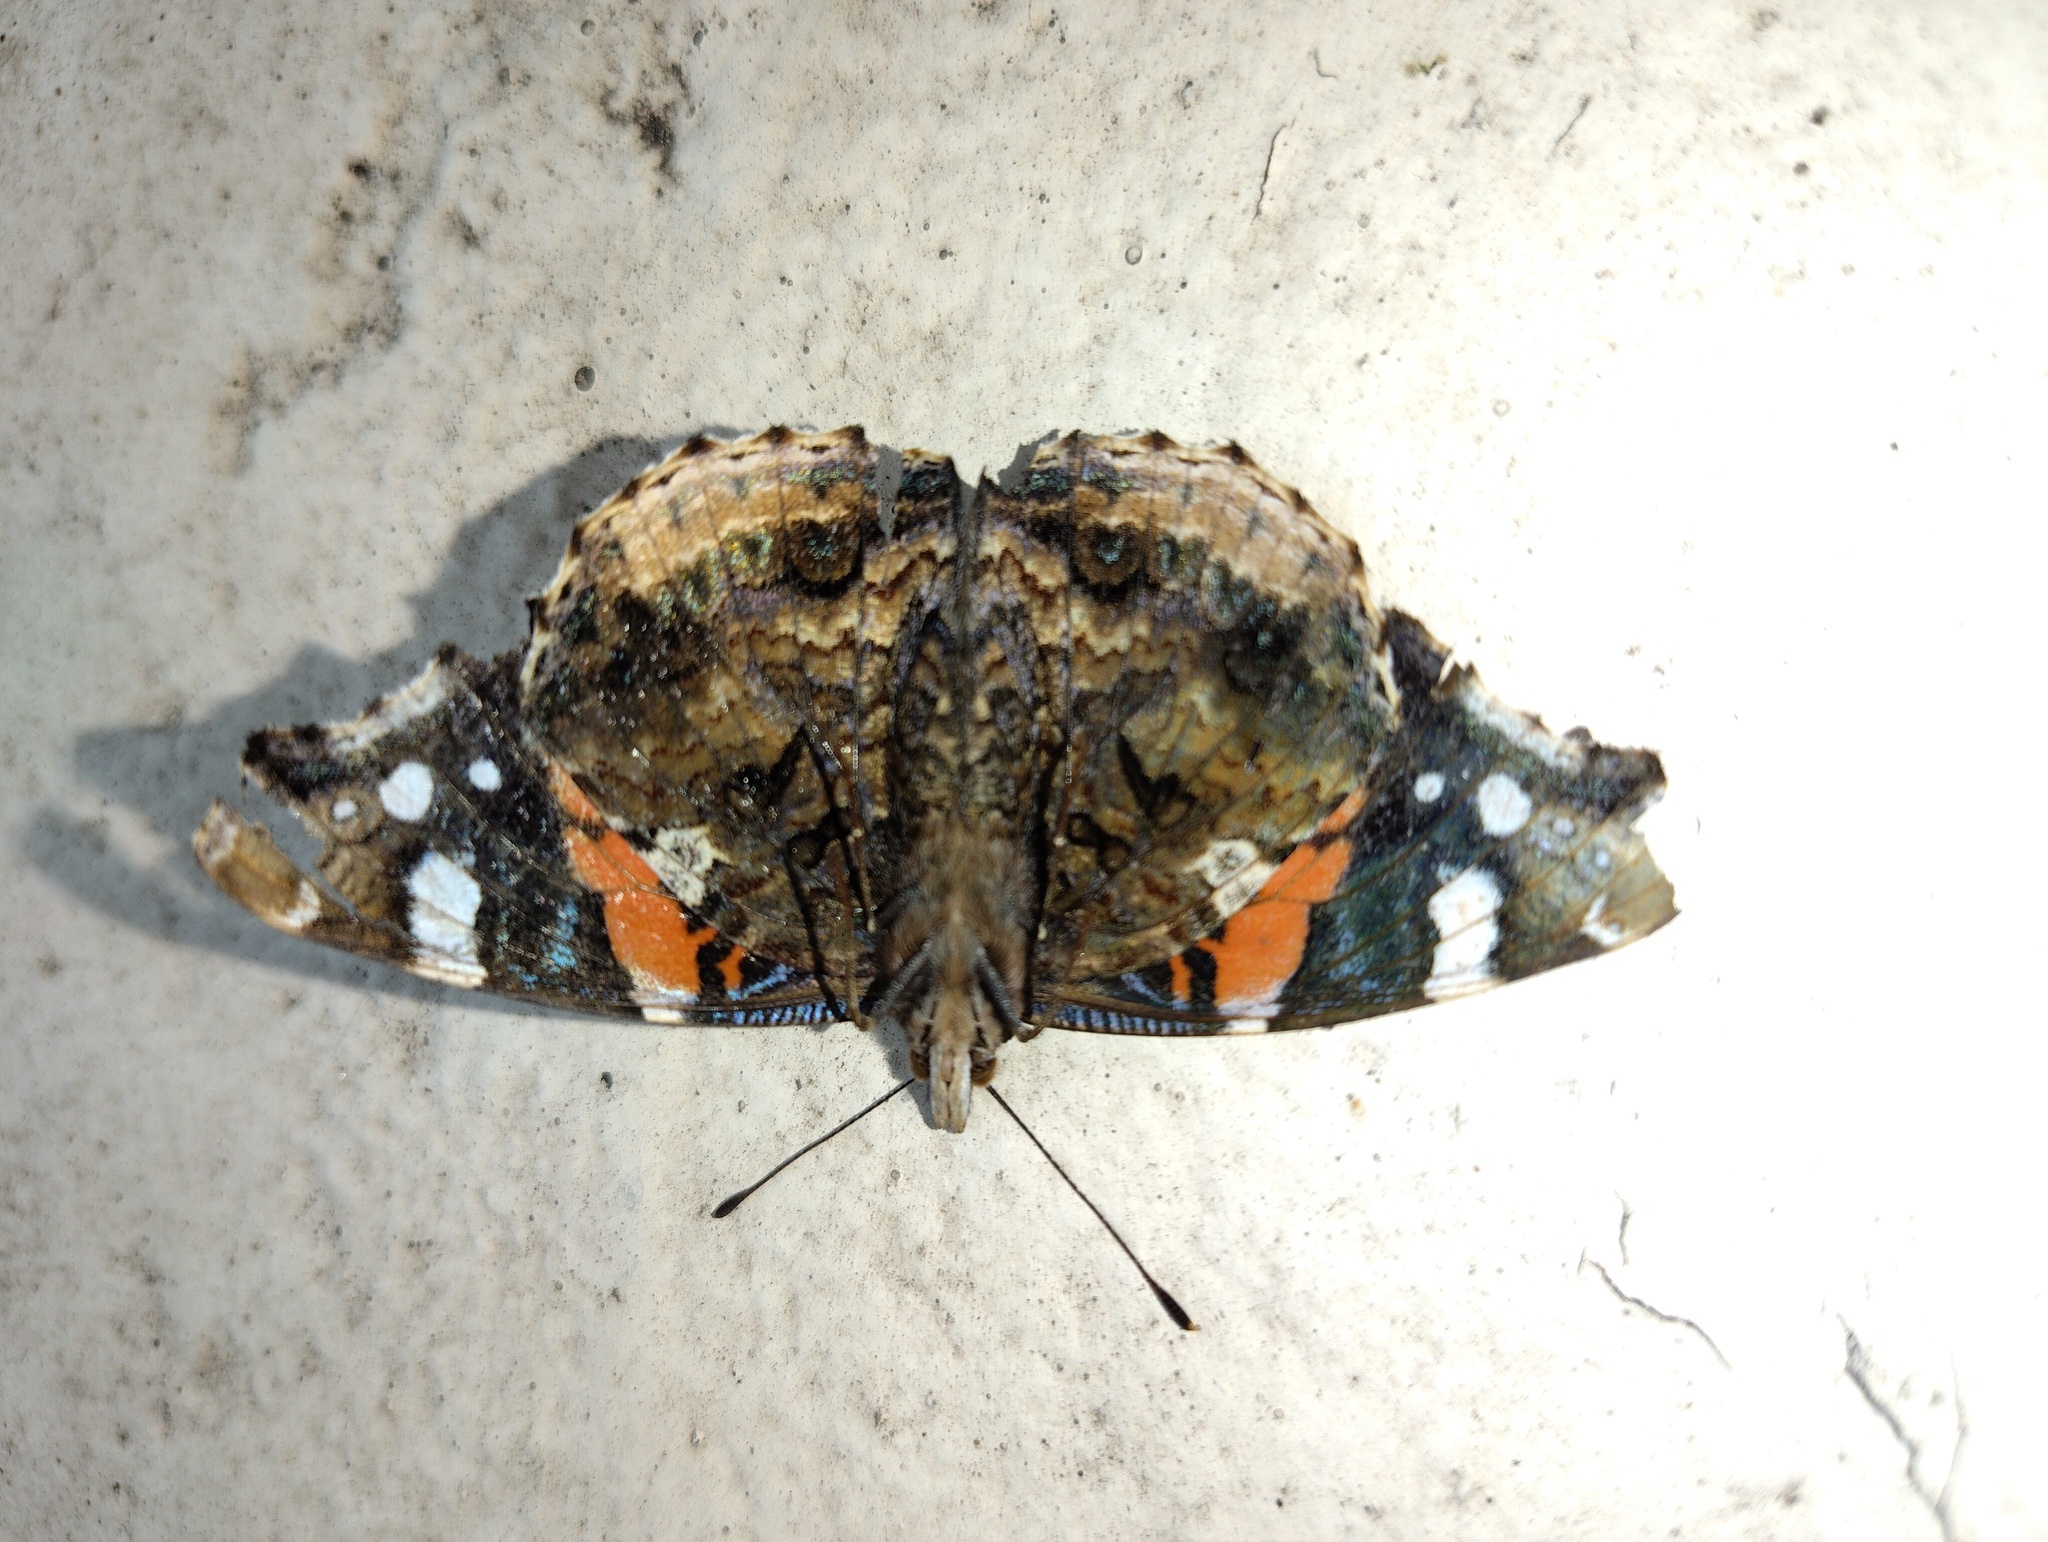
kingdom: Animalia
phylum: Arthropoda
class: Insecta
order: Lepidoptera
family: Nymphalidae
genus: Vanessa
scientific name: Vanessa atalanta
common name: Red admiral
